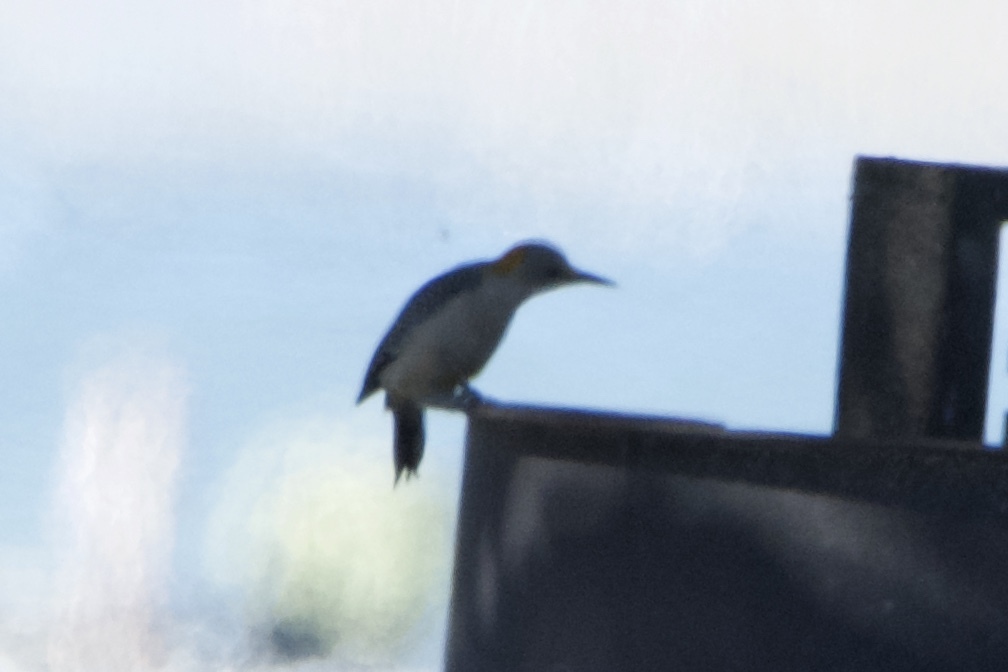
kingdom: Animalia
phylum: Chordata
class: Aves
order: Piciformes
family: Picidae
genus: Melanerpes
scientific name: Melanerpes aurifrons
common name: Golden-fronted woodpecker
